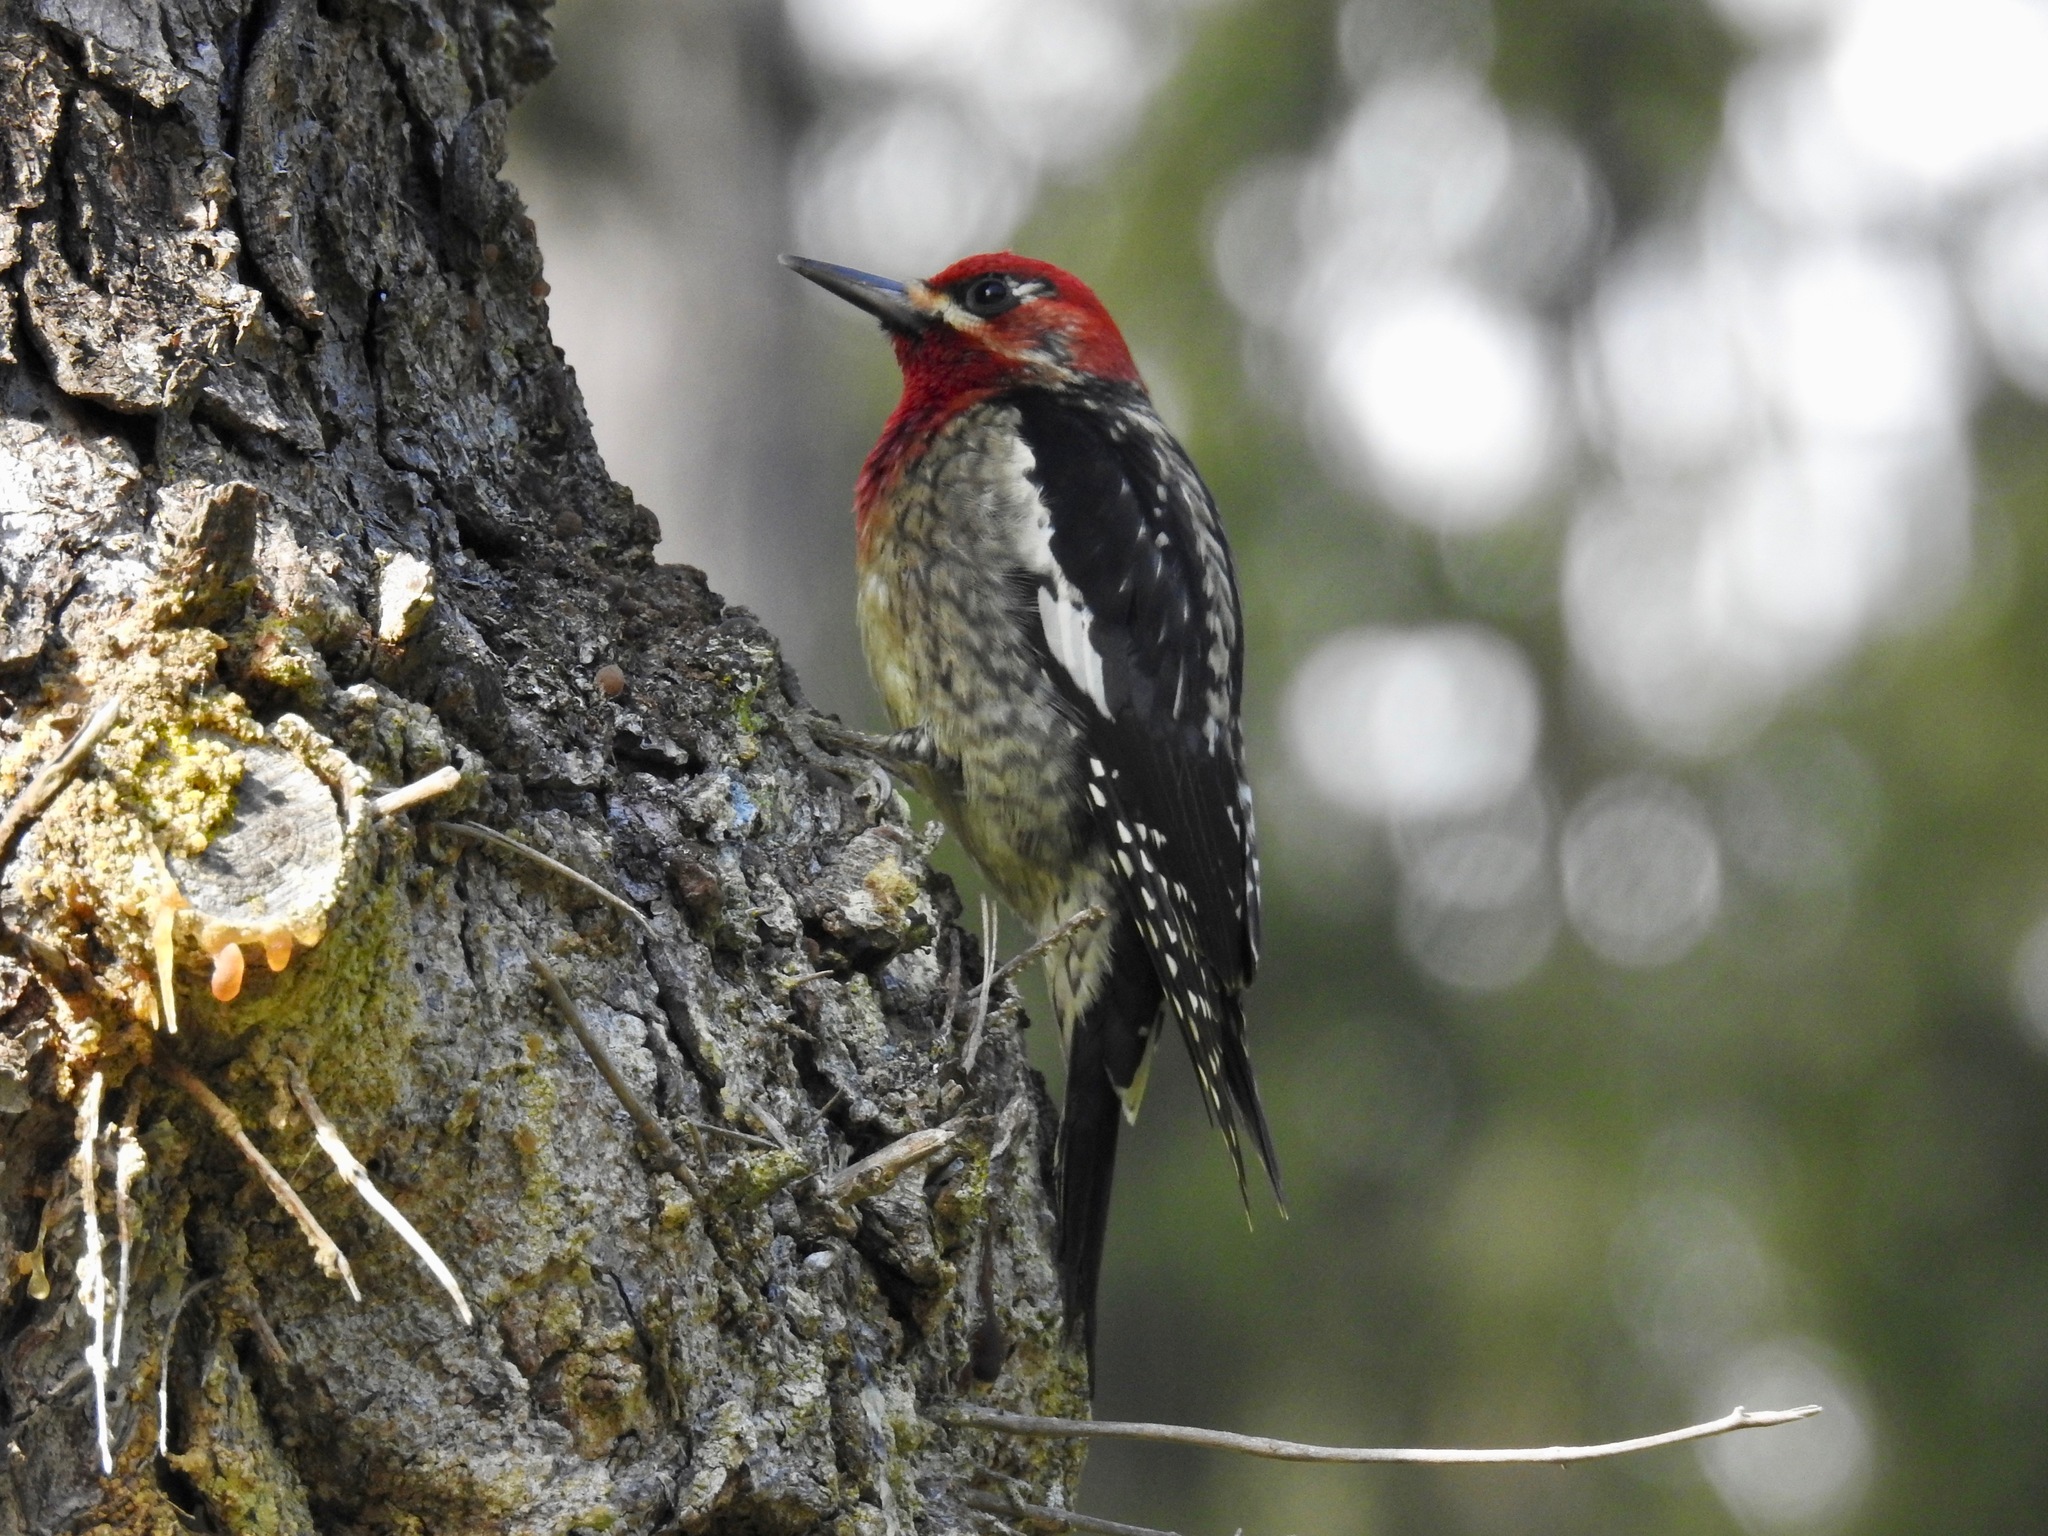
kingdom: Animalia
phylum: Chordata
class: Aves
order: Piciformes
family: Picidae
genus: Sphyrapicus
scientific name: Sphyrapicus ruber
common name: Red-breasted sapsucker
